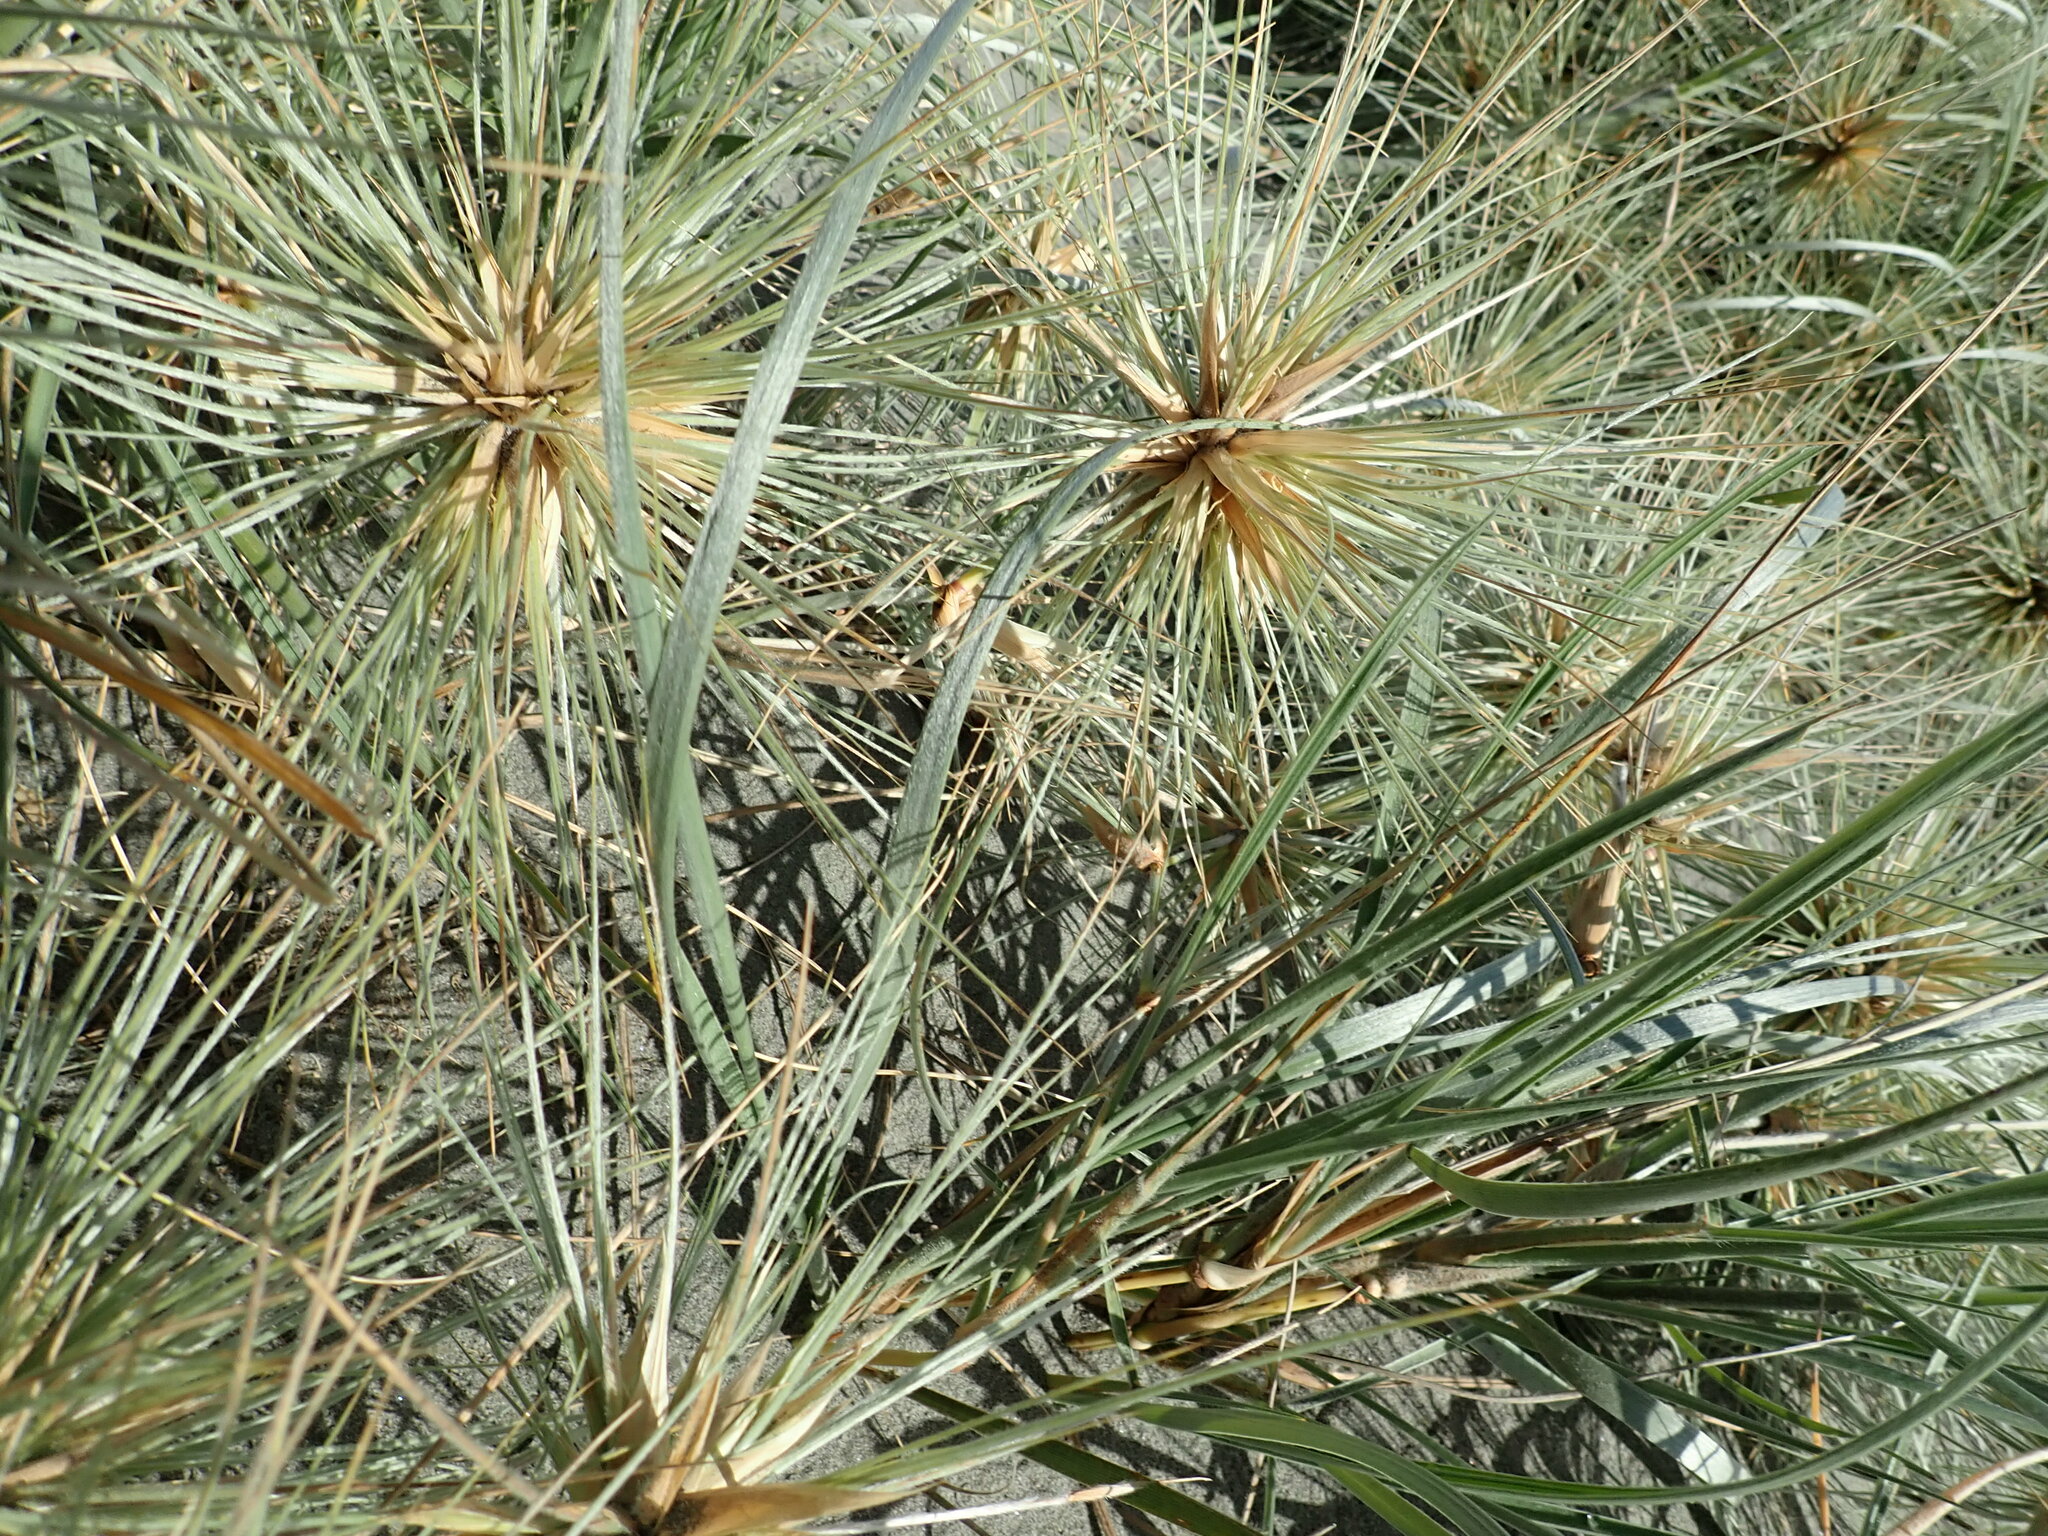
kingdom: Plantae
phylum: Tracheophyta
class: Liliopsida
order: Poales
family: Poaceae
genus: Spinifex
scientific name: Spinifex sericeus
